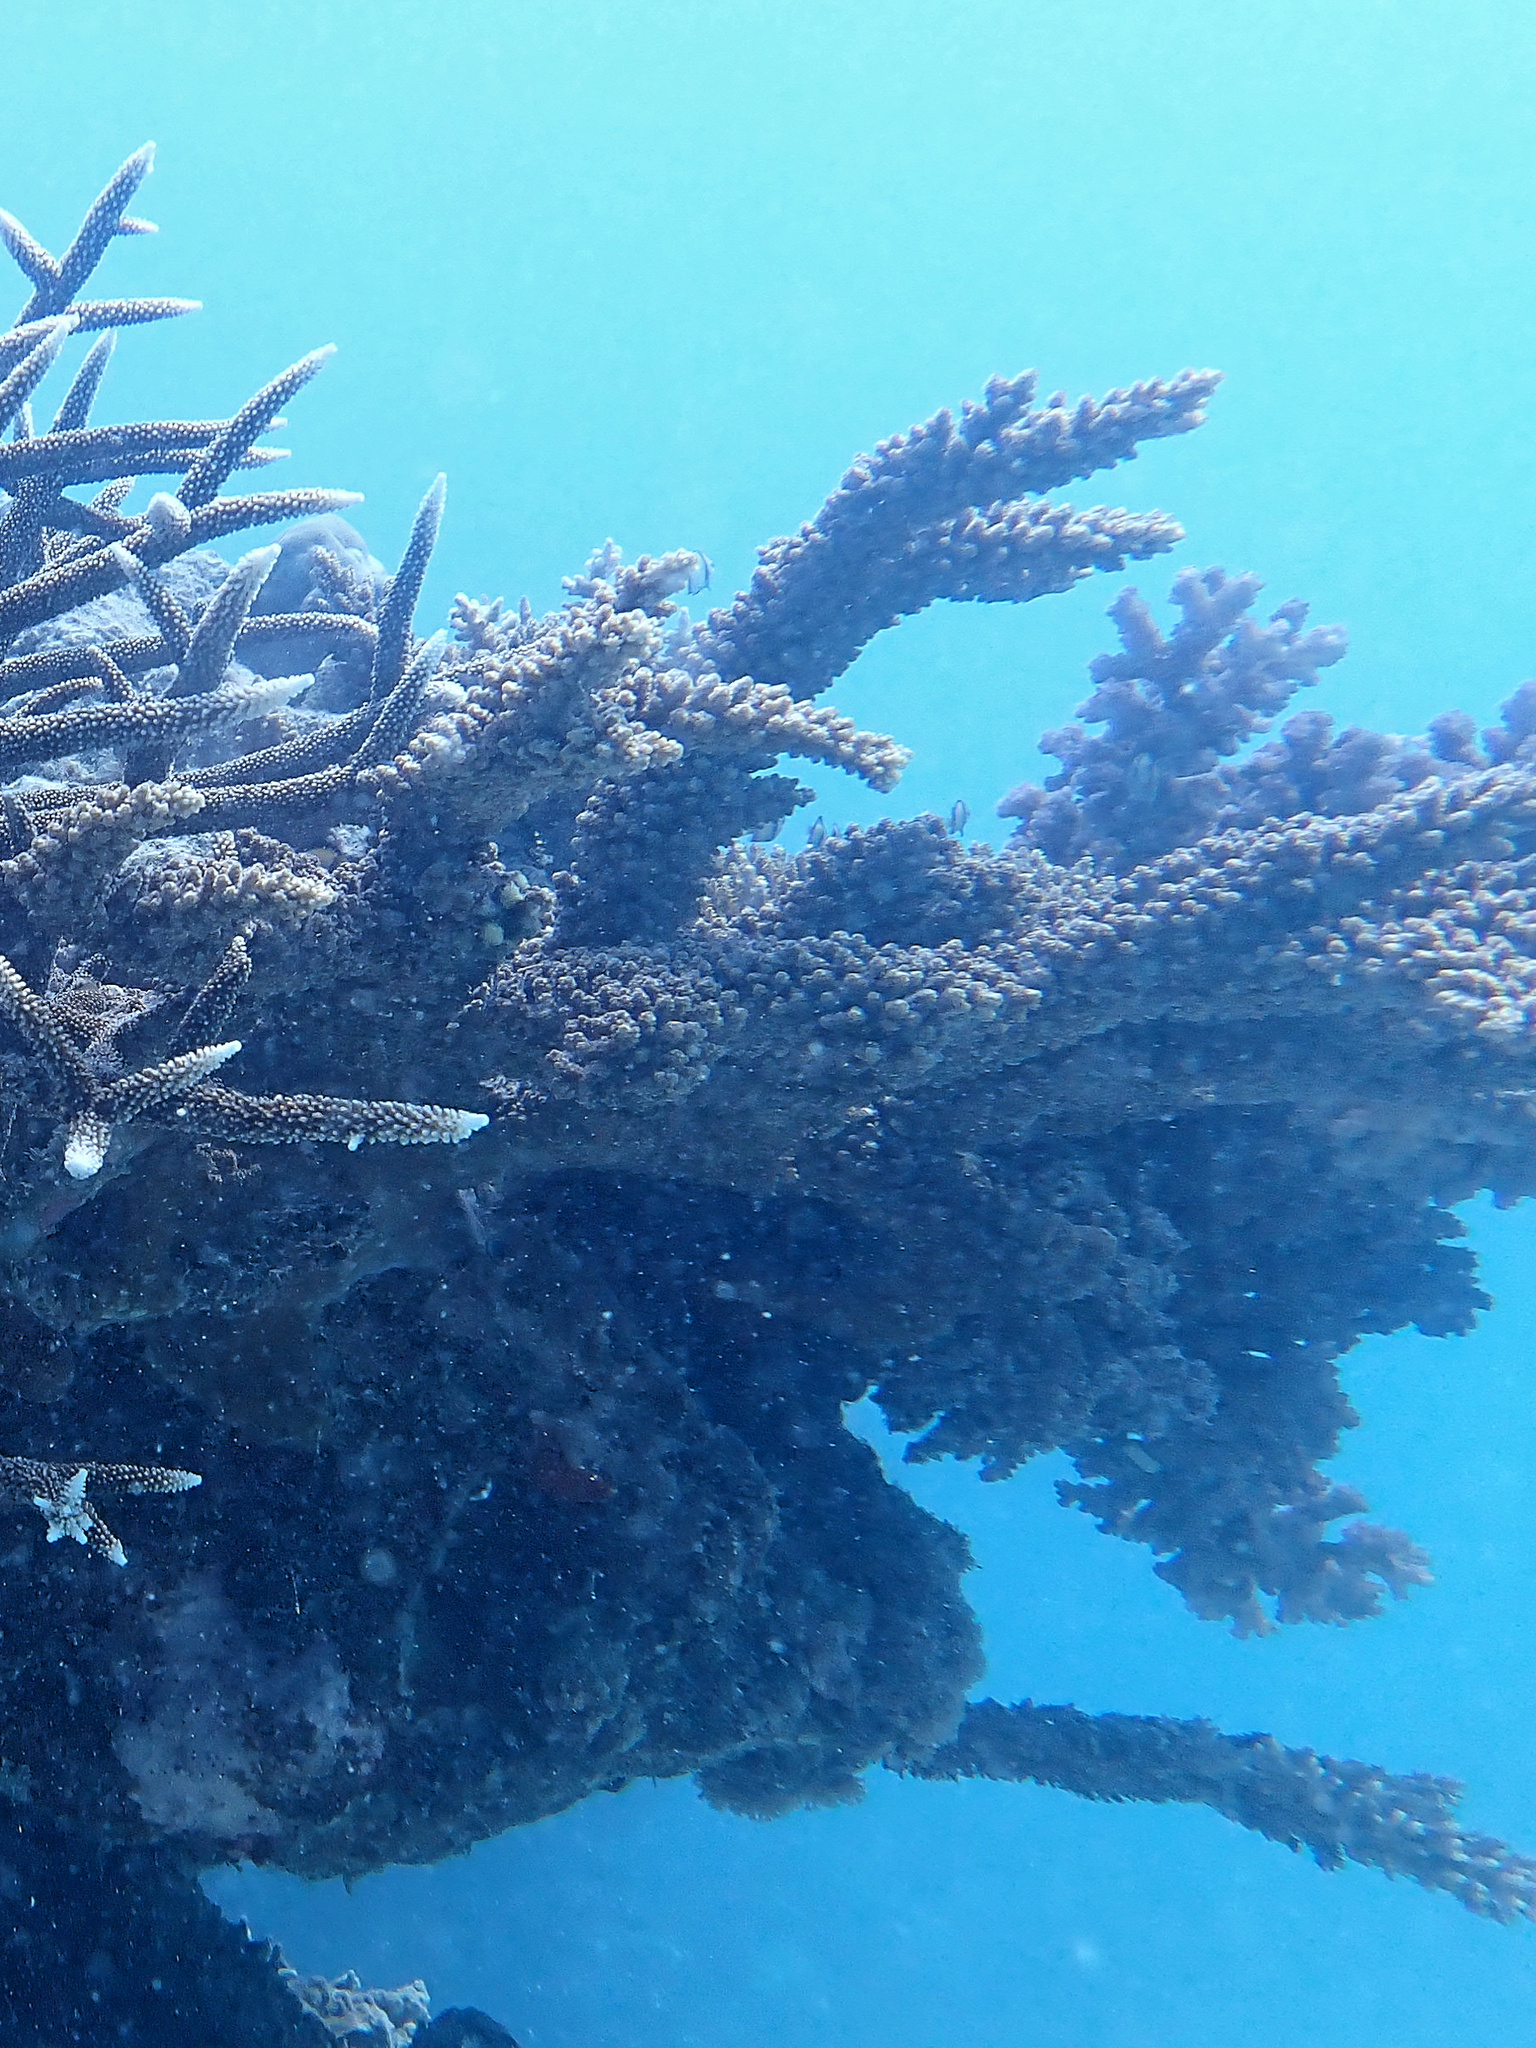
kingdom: Animalia
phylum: Cnidaria
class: Anthozoa
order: Scleractinia
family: Acroporidae
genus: Acropora
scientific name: Acropora florida
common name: Branch coral
